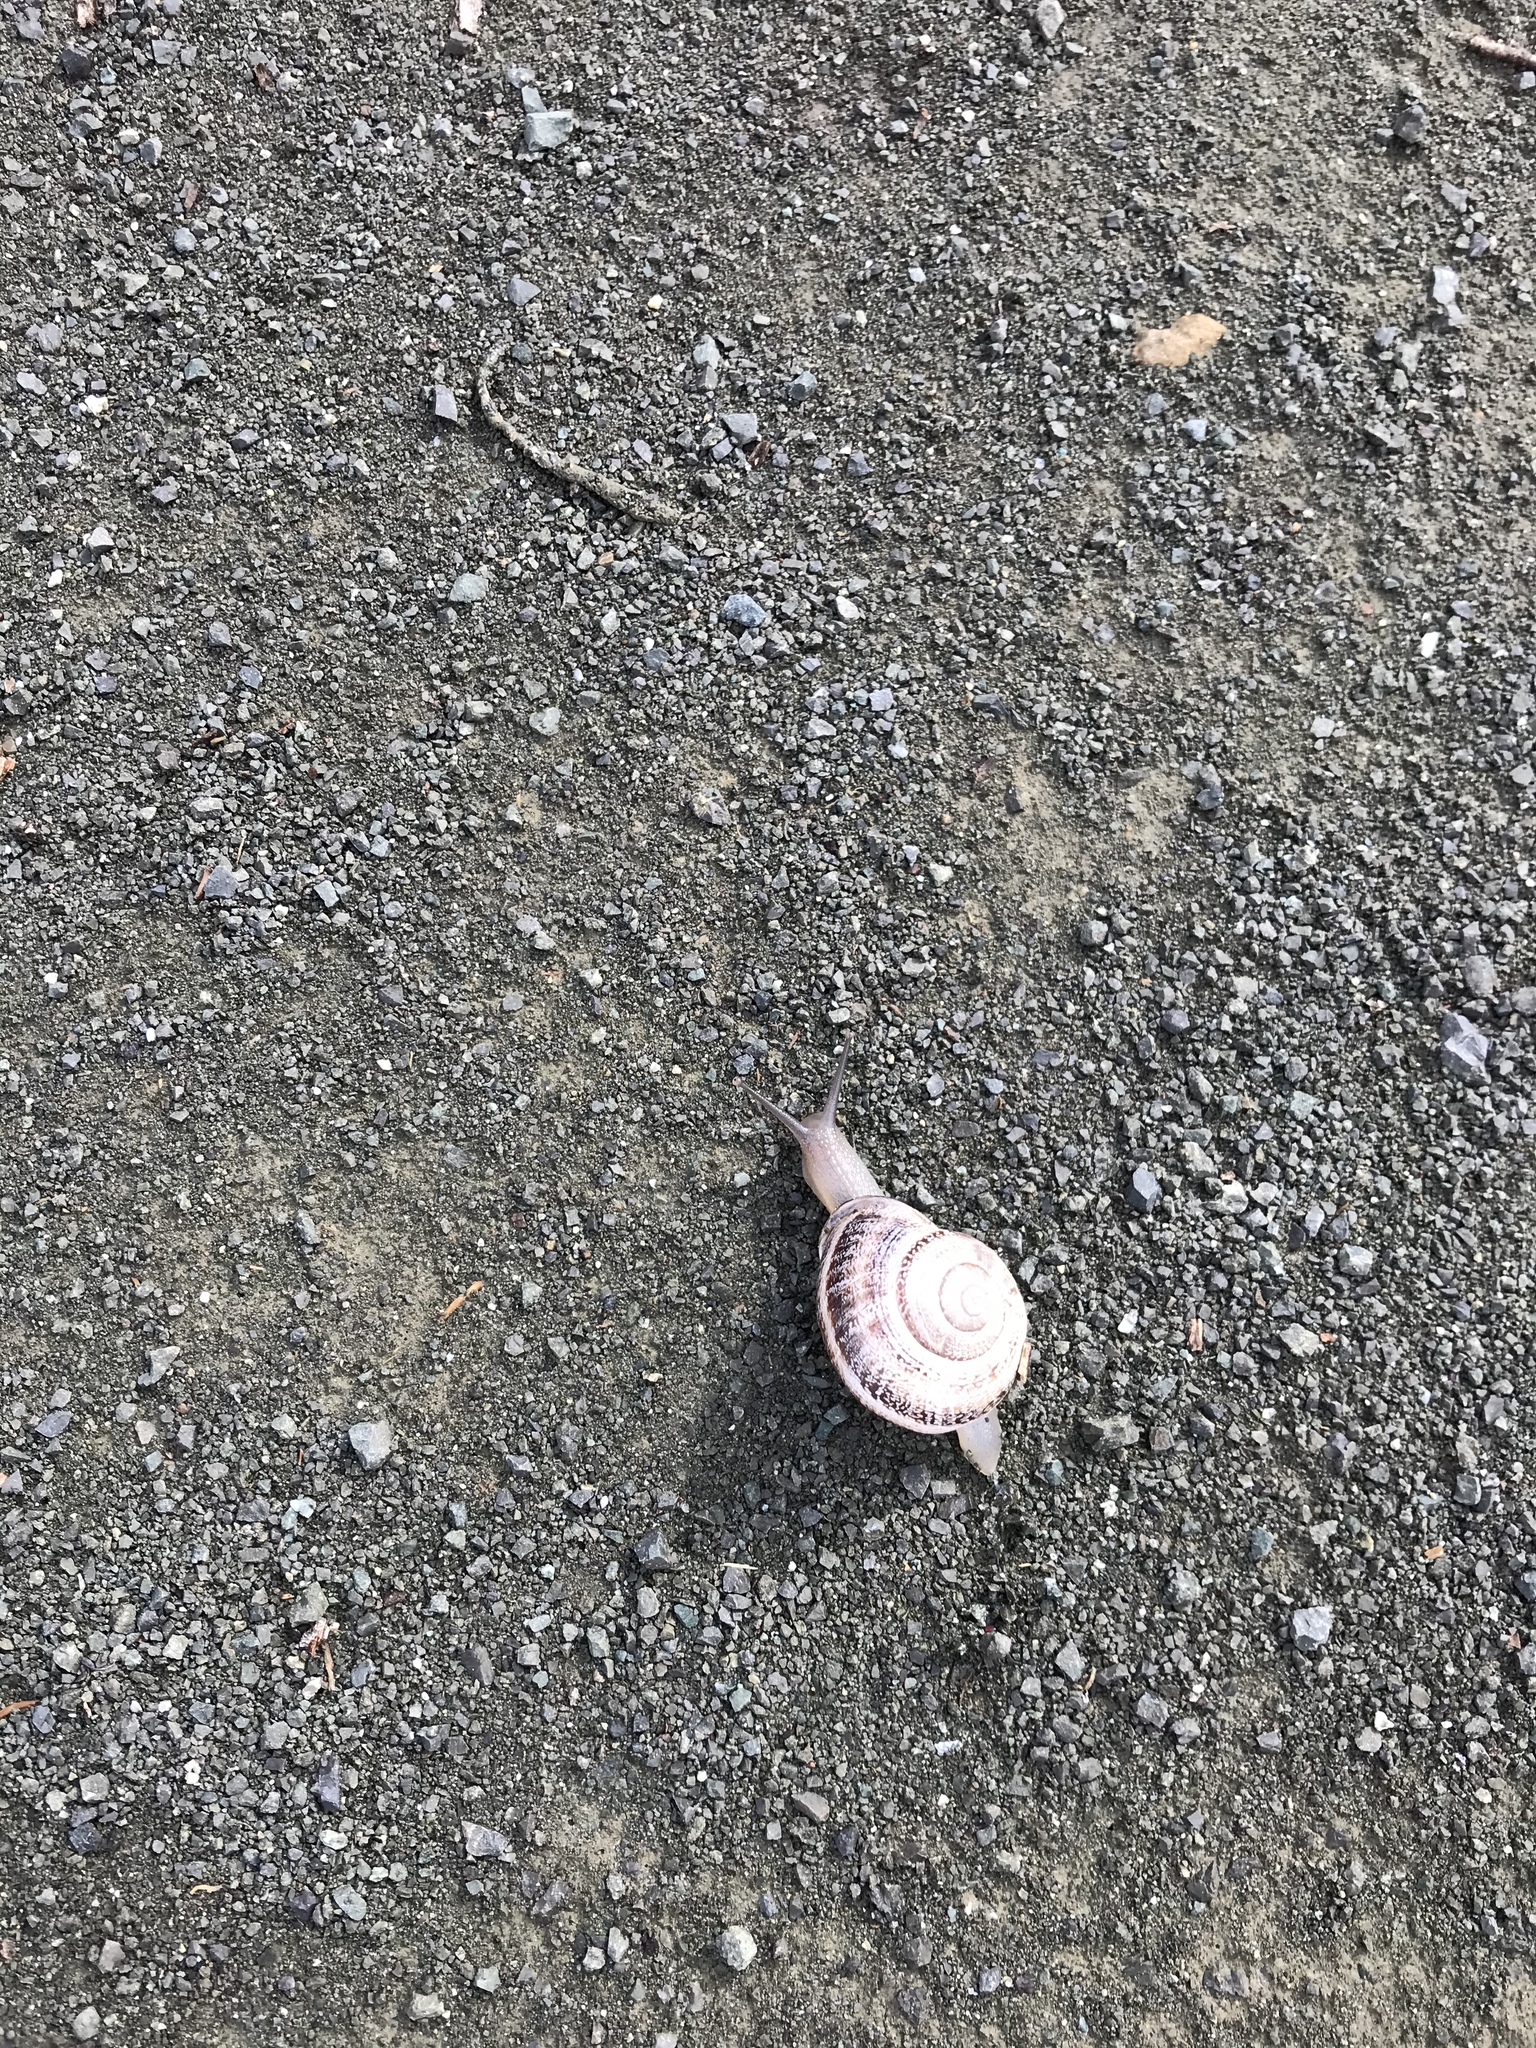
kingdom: Animalia
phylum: Mollusca
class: Gastropoda
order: Stylommatophora
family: Helicidae
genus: Otala
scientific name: Otala lactea
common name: Milk snail
